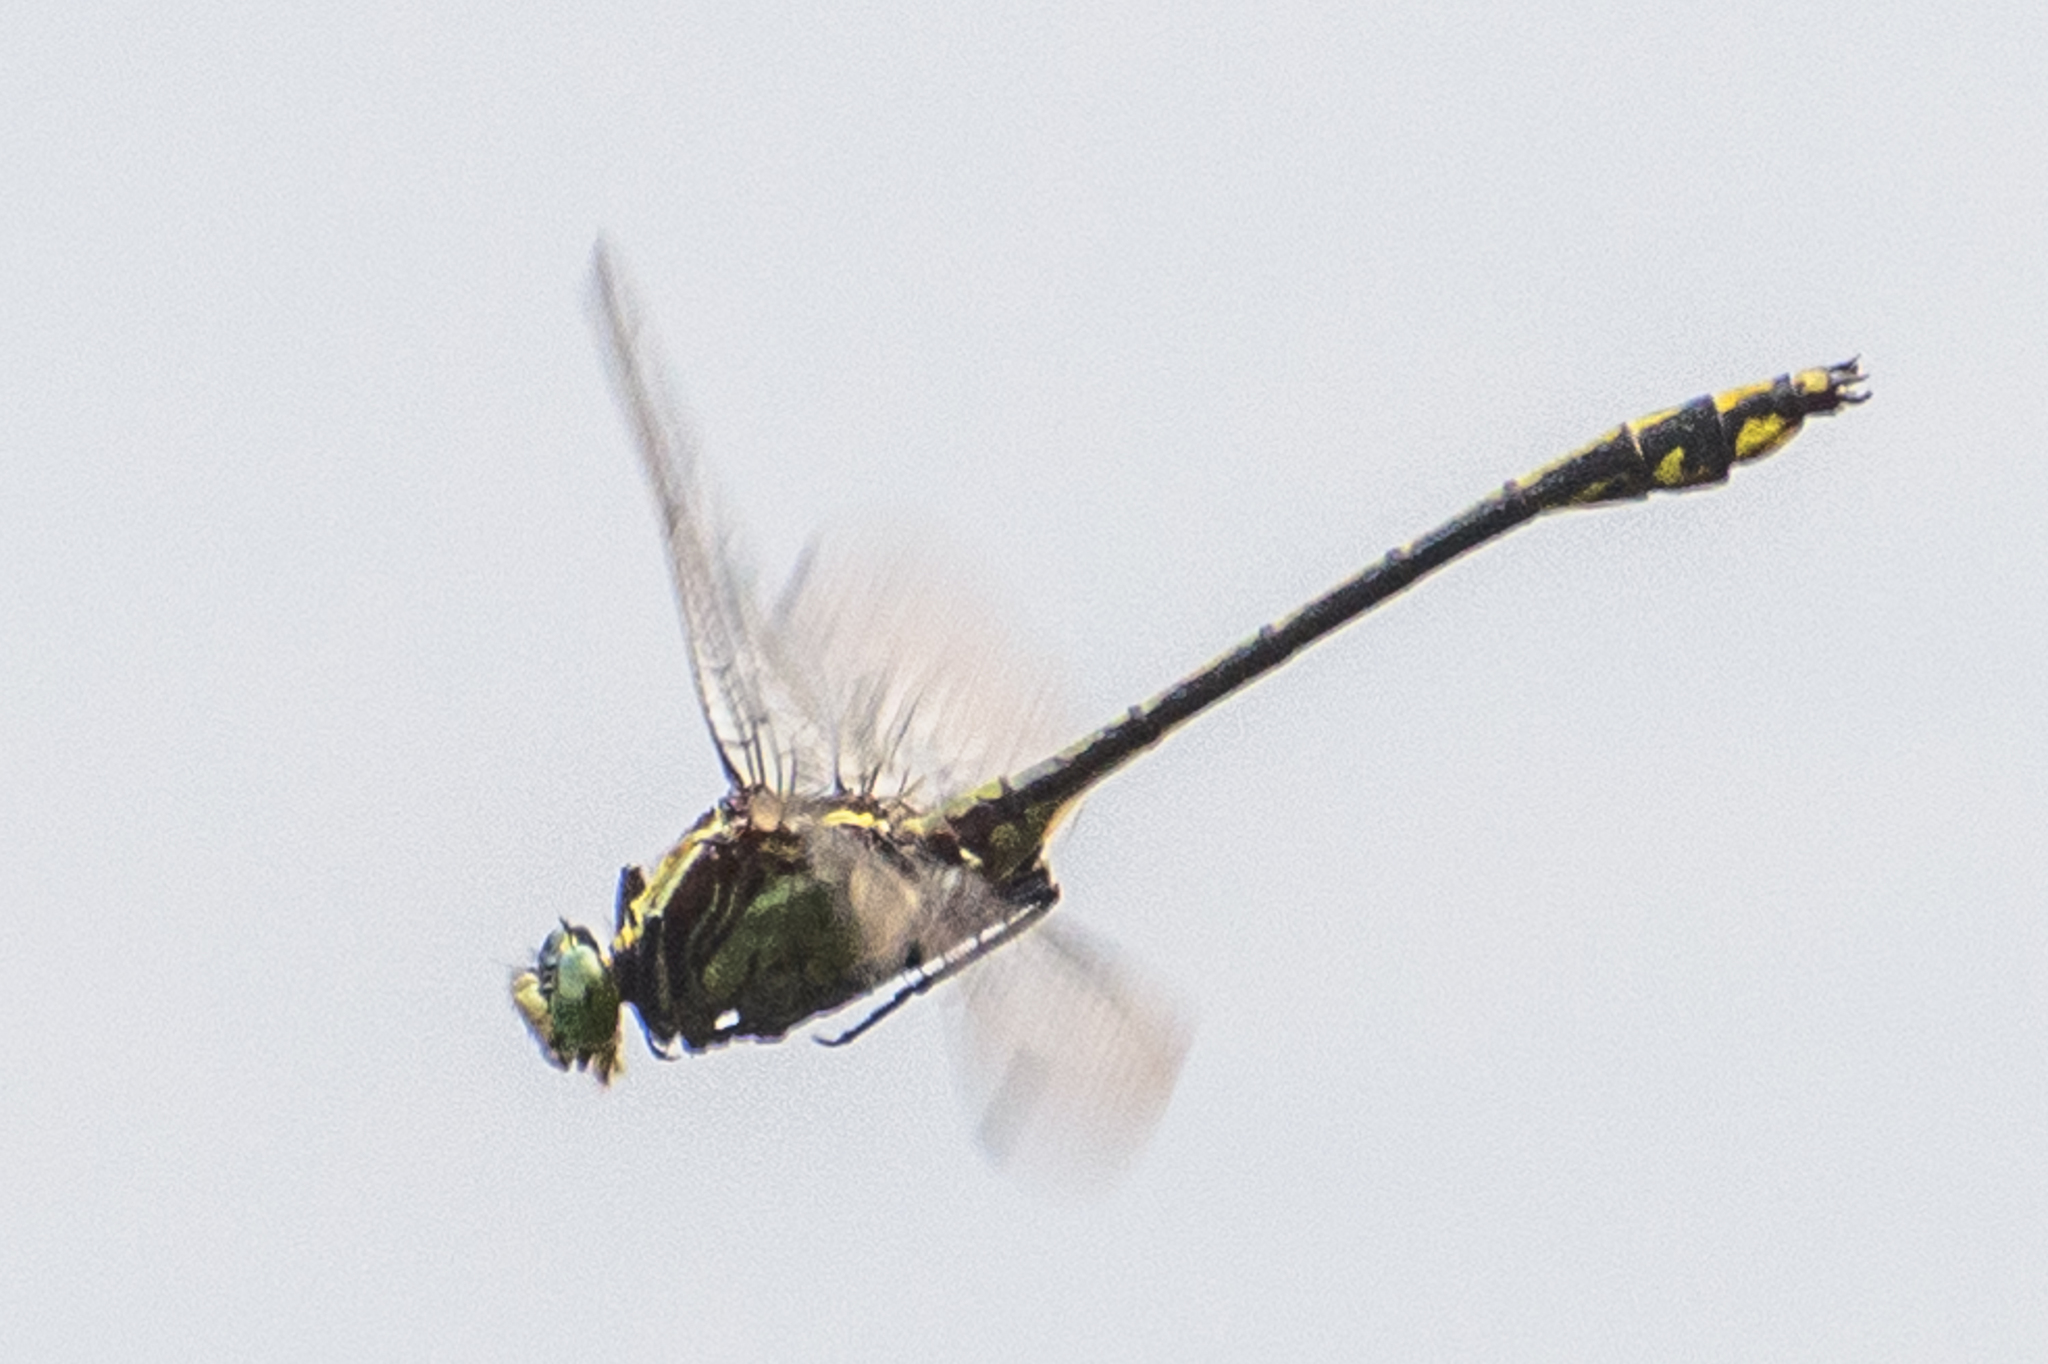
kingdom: Animalia
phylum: Arthropoda
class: Insecta
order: Odonata
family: Gomphidae
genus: Dromogomphus
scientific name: Dromogomphus spinosus
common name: Black-shouldered spinyleg
